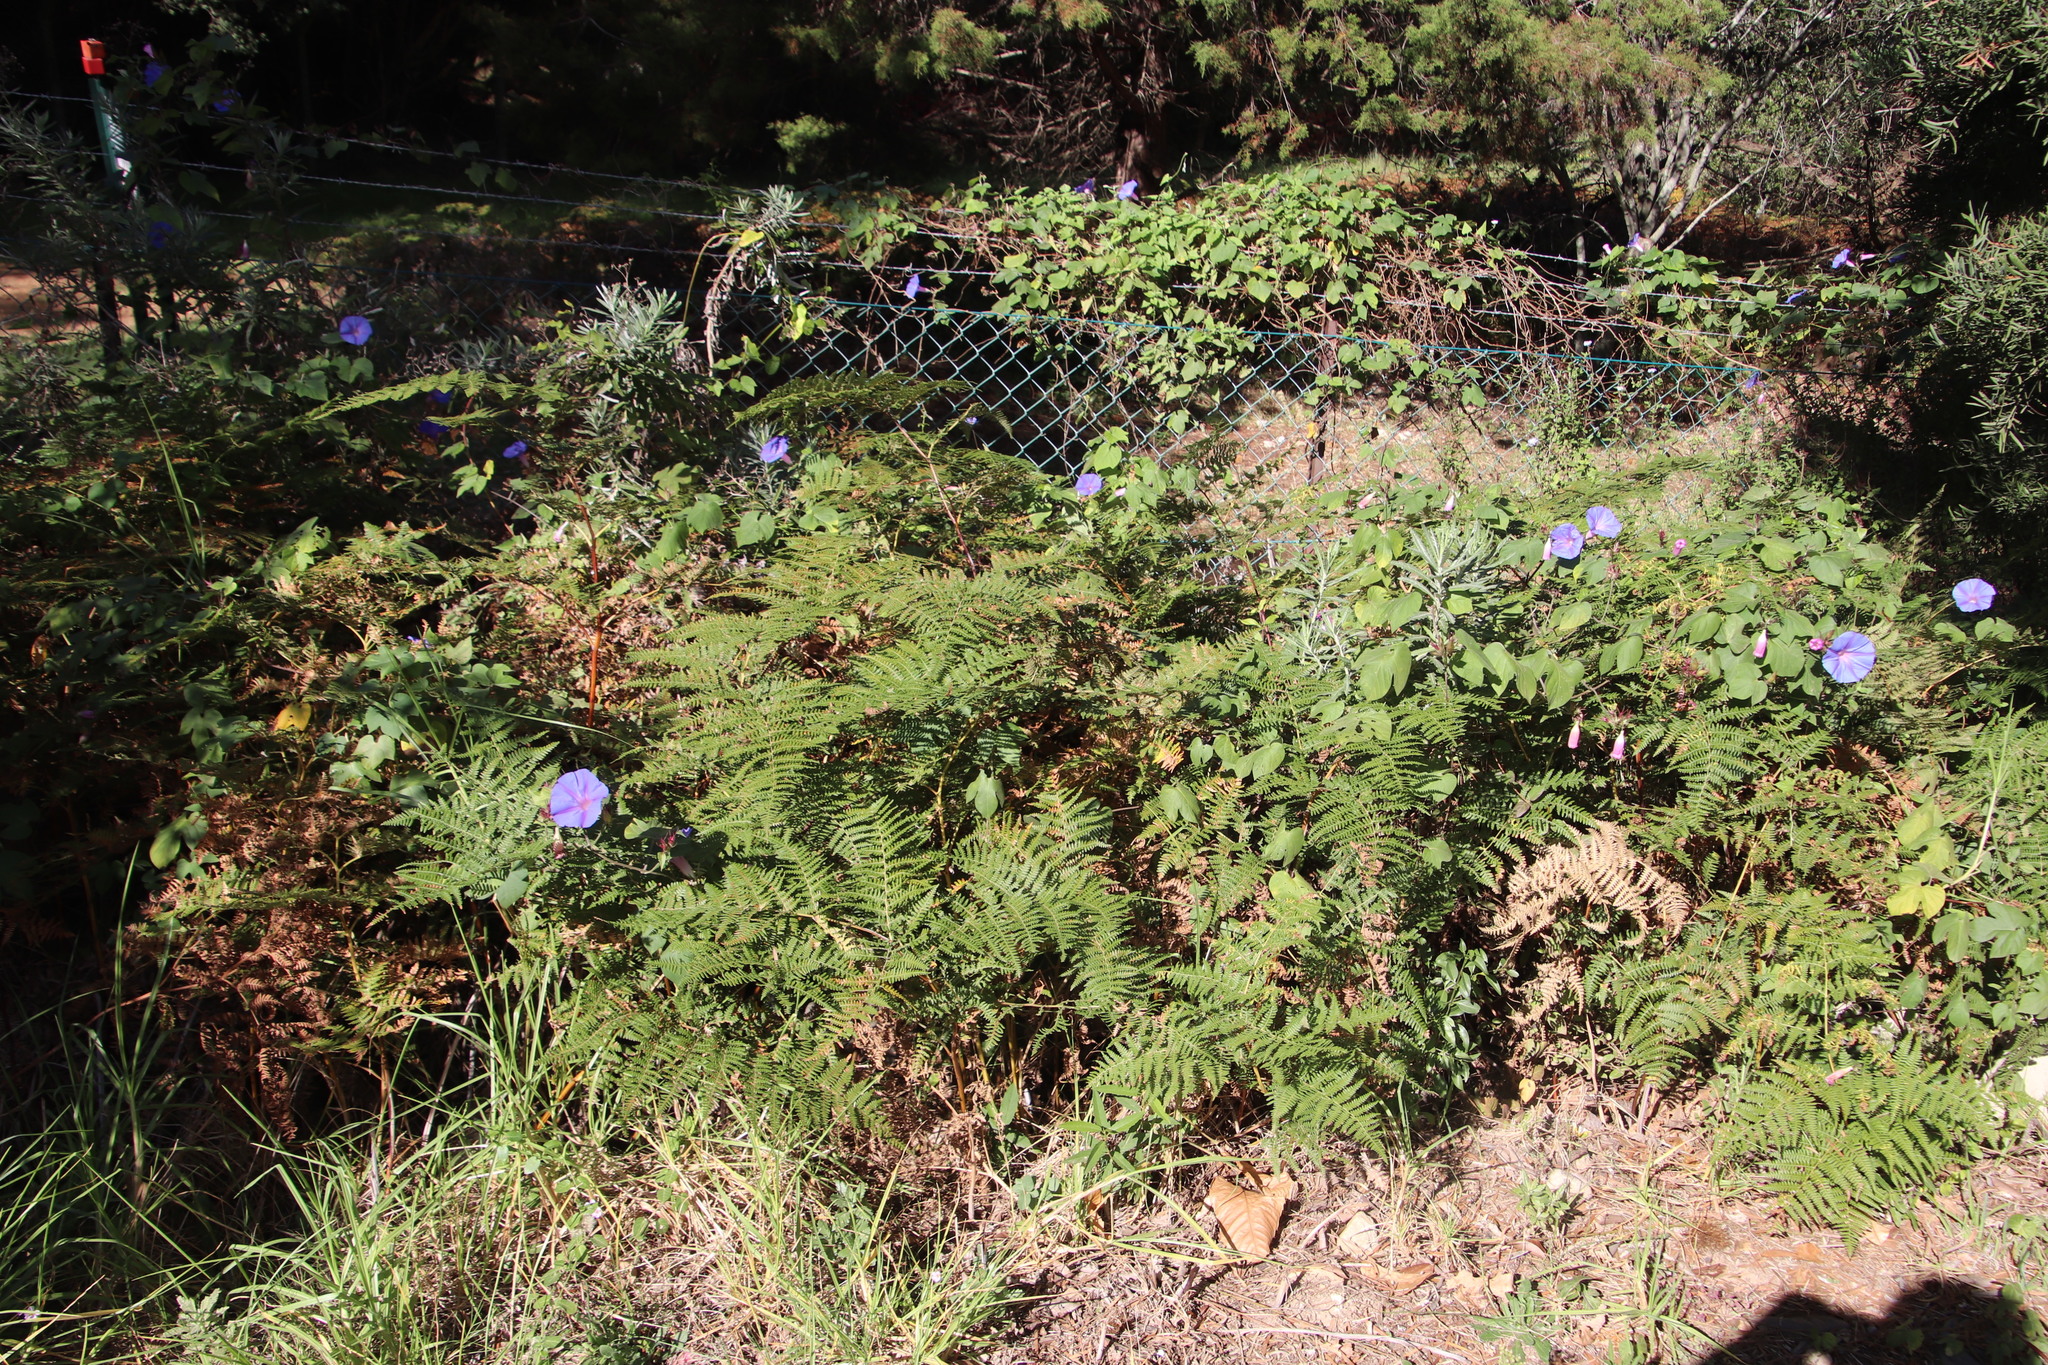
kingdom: Plantae
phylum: Tracheophyta
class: Polypodiopsida
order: Polypodiales
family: Dennstaedtiaceae
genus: Pteridium
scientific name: Pteridium aquilinum
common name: Bracken
